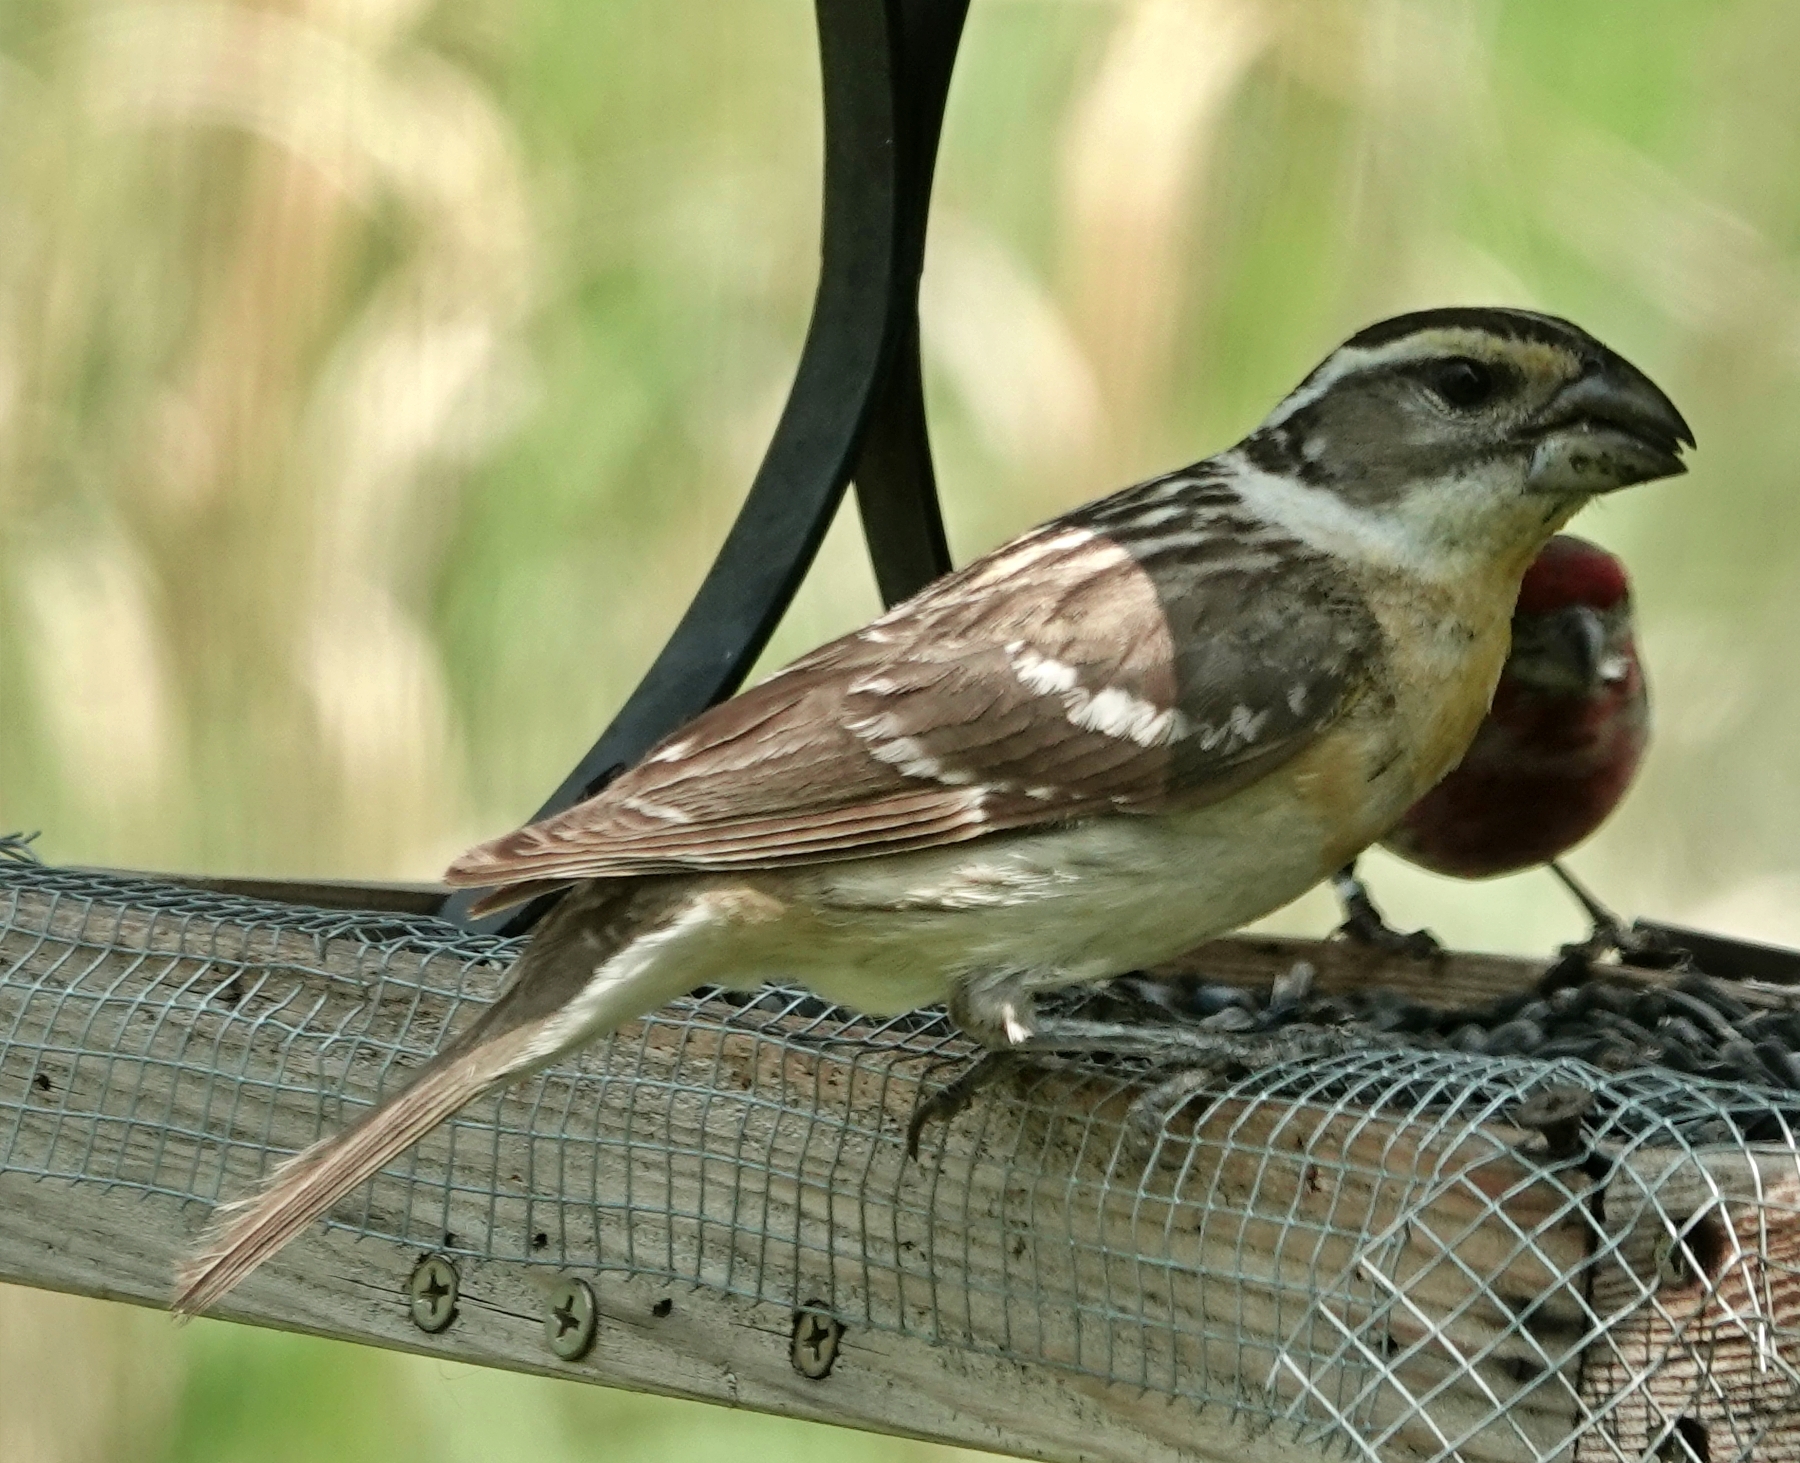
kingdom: Animalia
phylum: Chordata
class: Aves
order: Passeriformes
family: Cardinalidae
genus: Pheucticus
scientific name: Pheucticus melanocephalus
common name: Black-headed grosbeak
